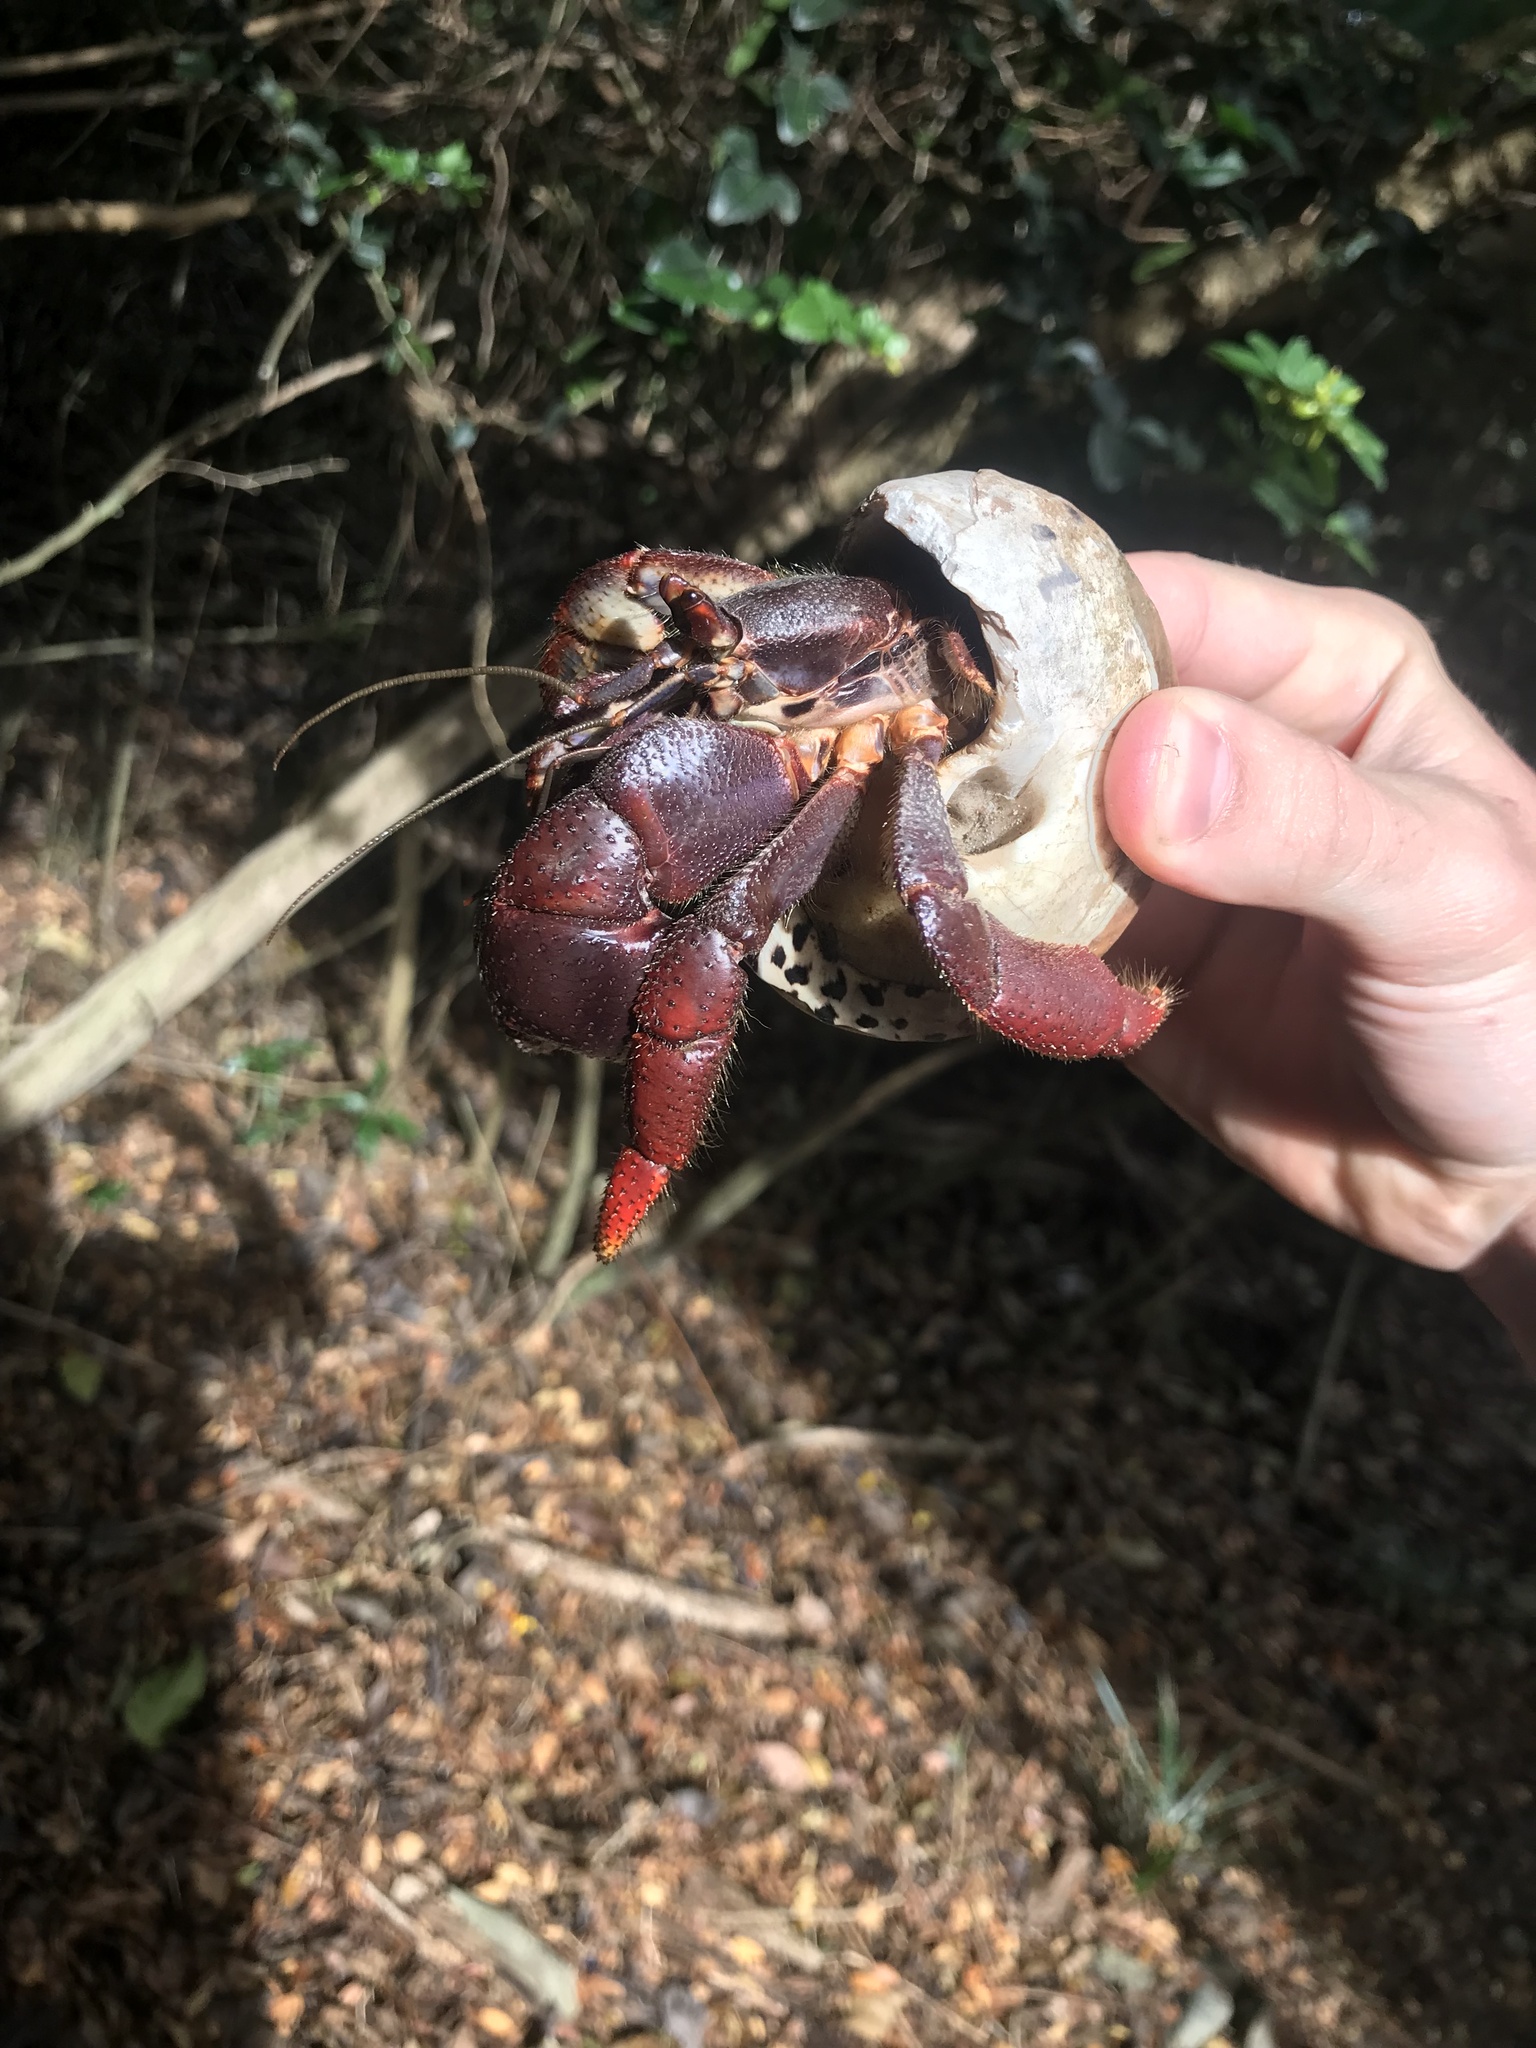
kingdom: Animalia
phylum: Arthropoda
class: Malacostraca
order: Decapoda
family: Coenobitidae
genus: Coenobita
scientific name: Coenobita clypeatus
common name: Caribbean hermit crab
